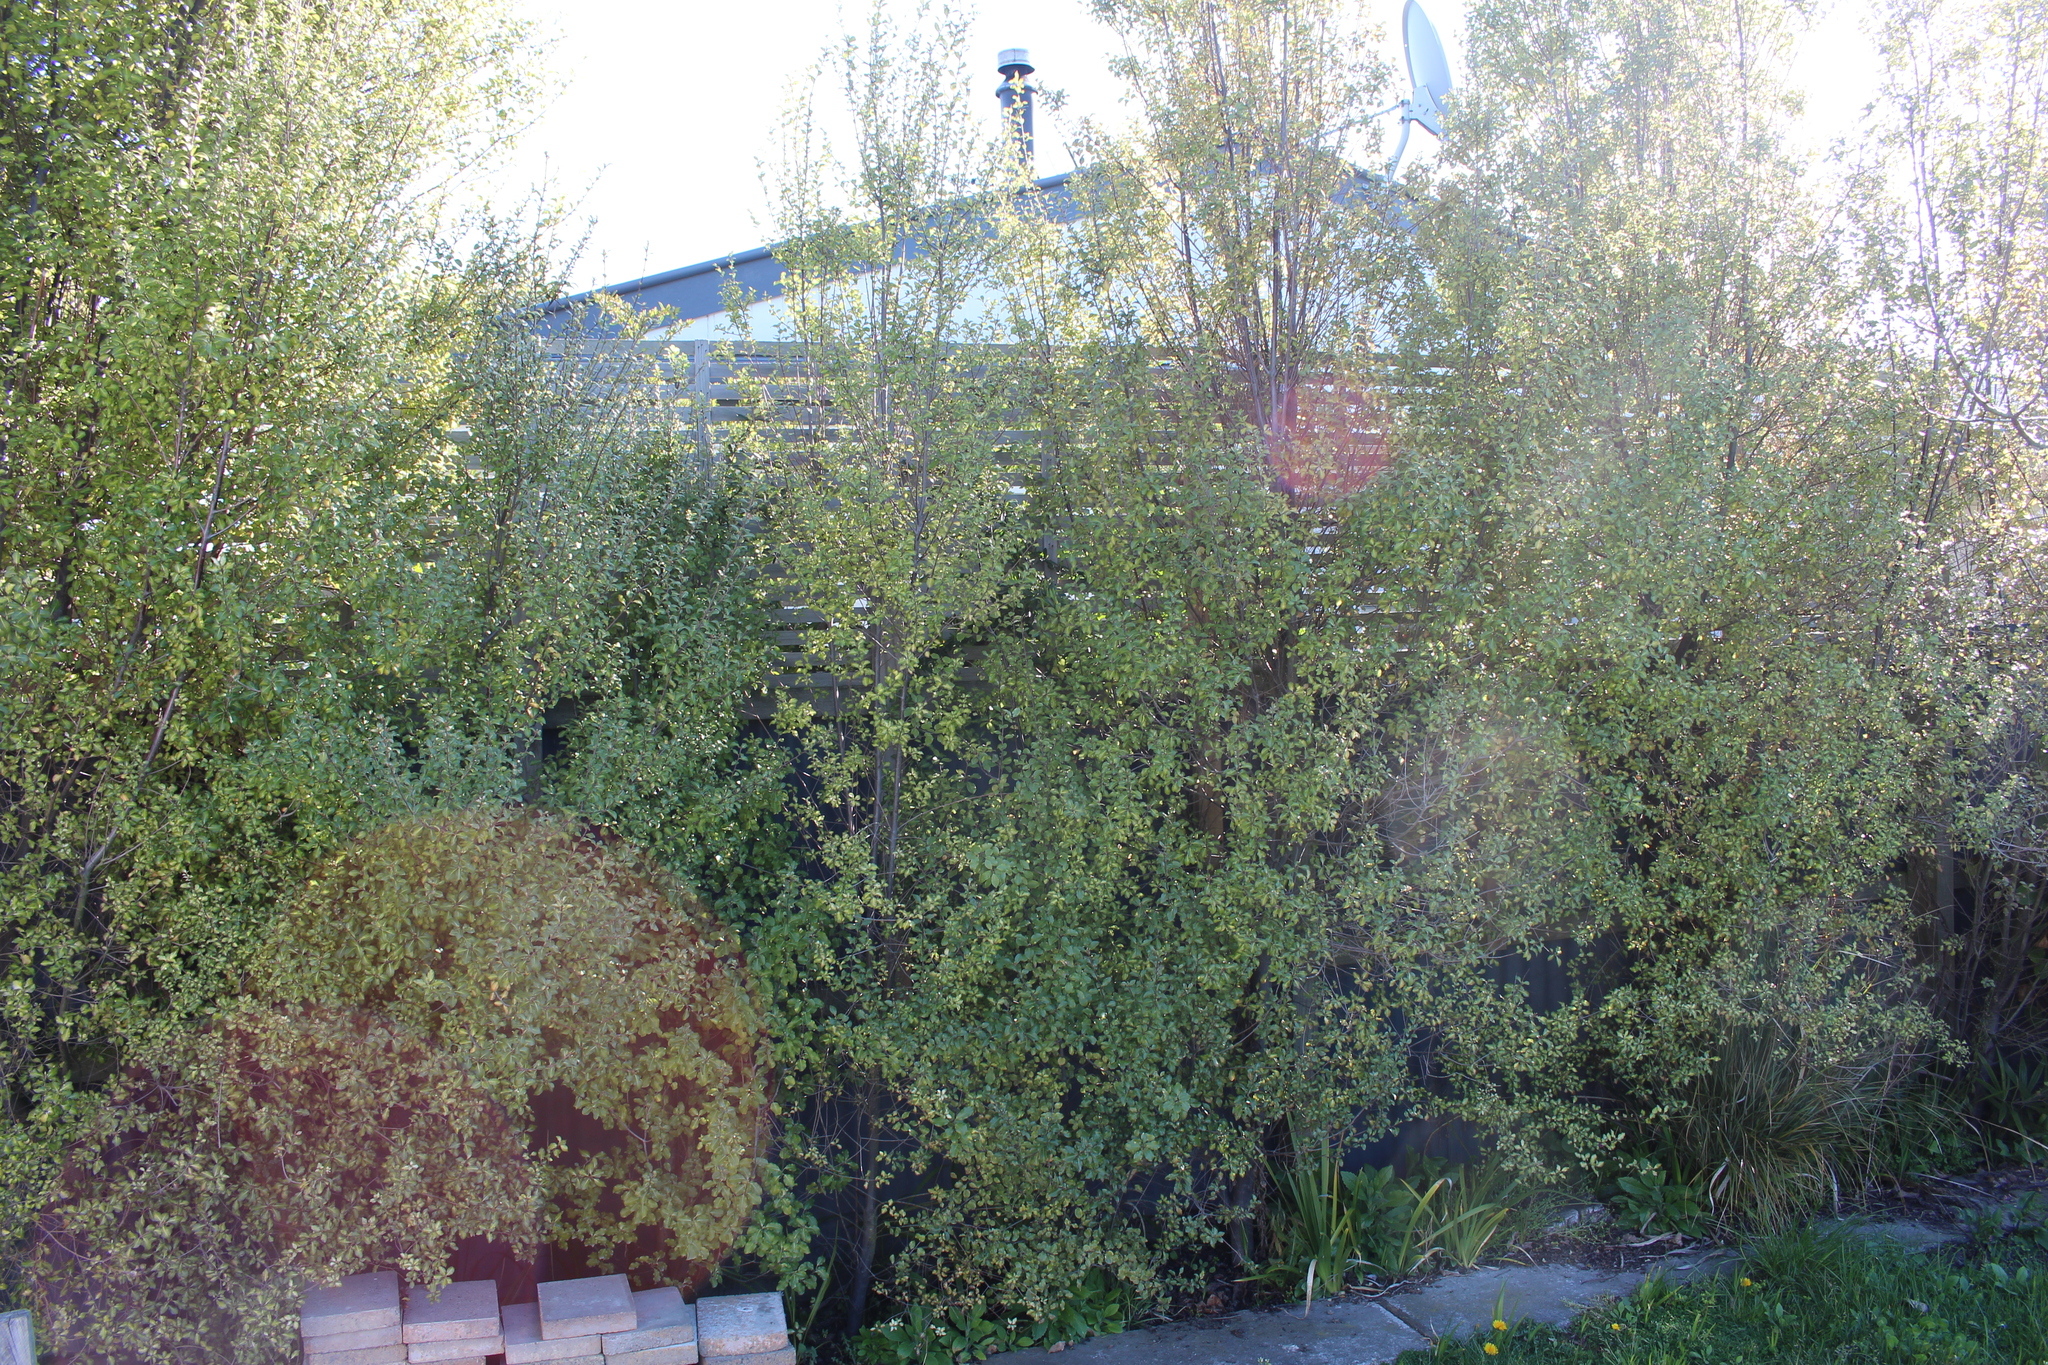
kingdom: Plantae
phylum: Tracheophyta
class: Magnoliopsida
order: Apiales
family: Pittosporaceae
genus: Pittosporum
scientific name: Pittosporum tenuifolium
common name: Kohuhu
